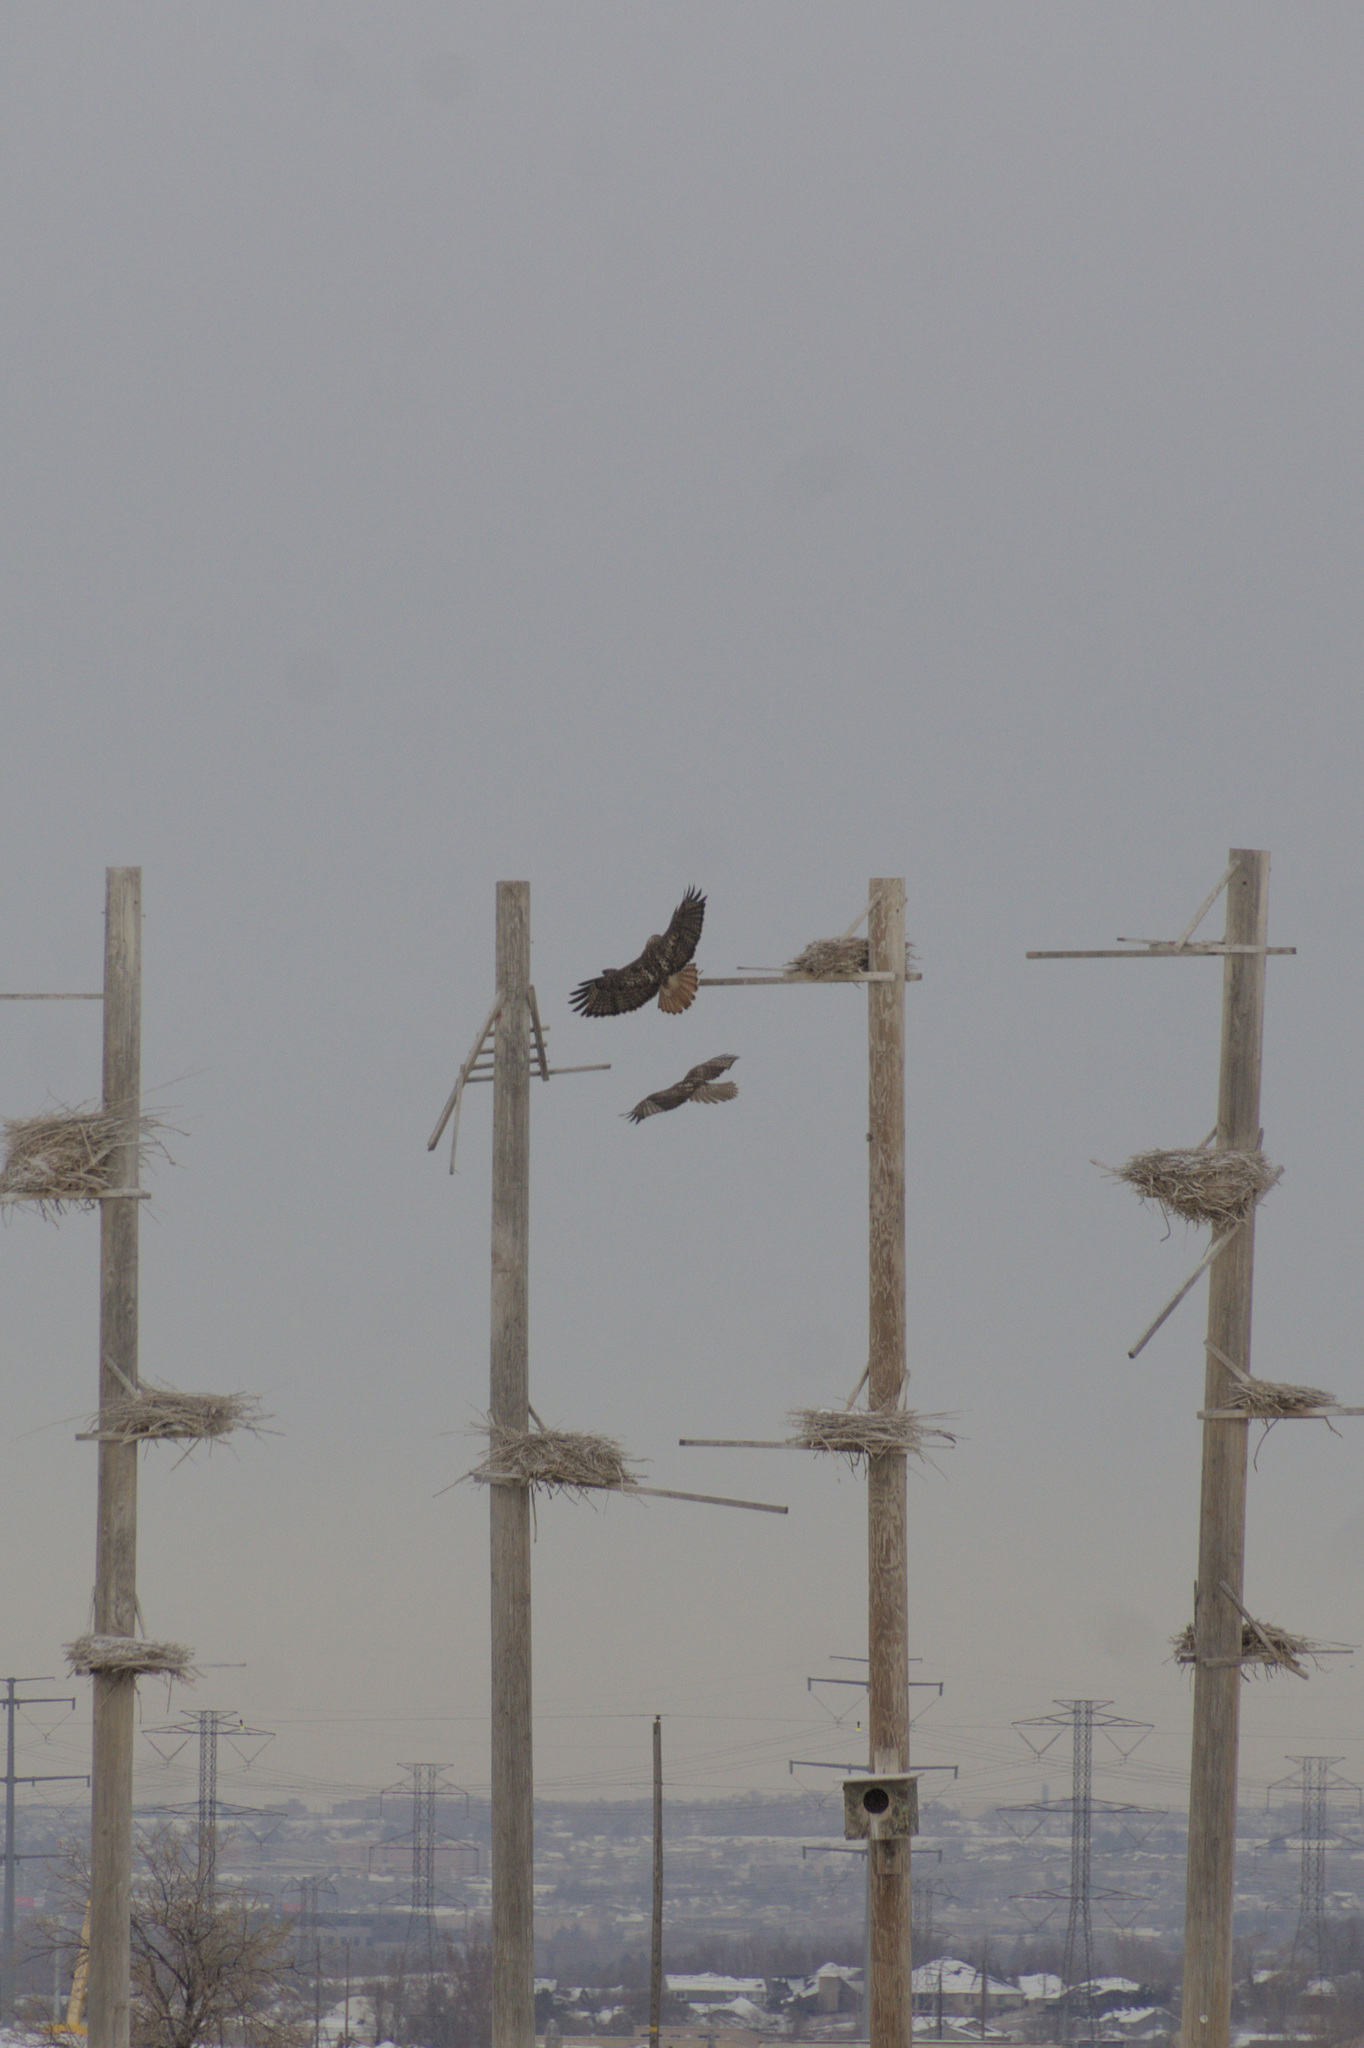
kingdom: Animalia
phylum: Chordata
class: Aves
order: Accipitriformes
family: Accipitridae
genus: Buteo
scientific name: Buteo jamaicensis
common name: Red-tailed hawk
